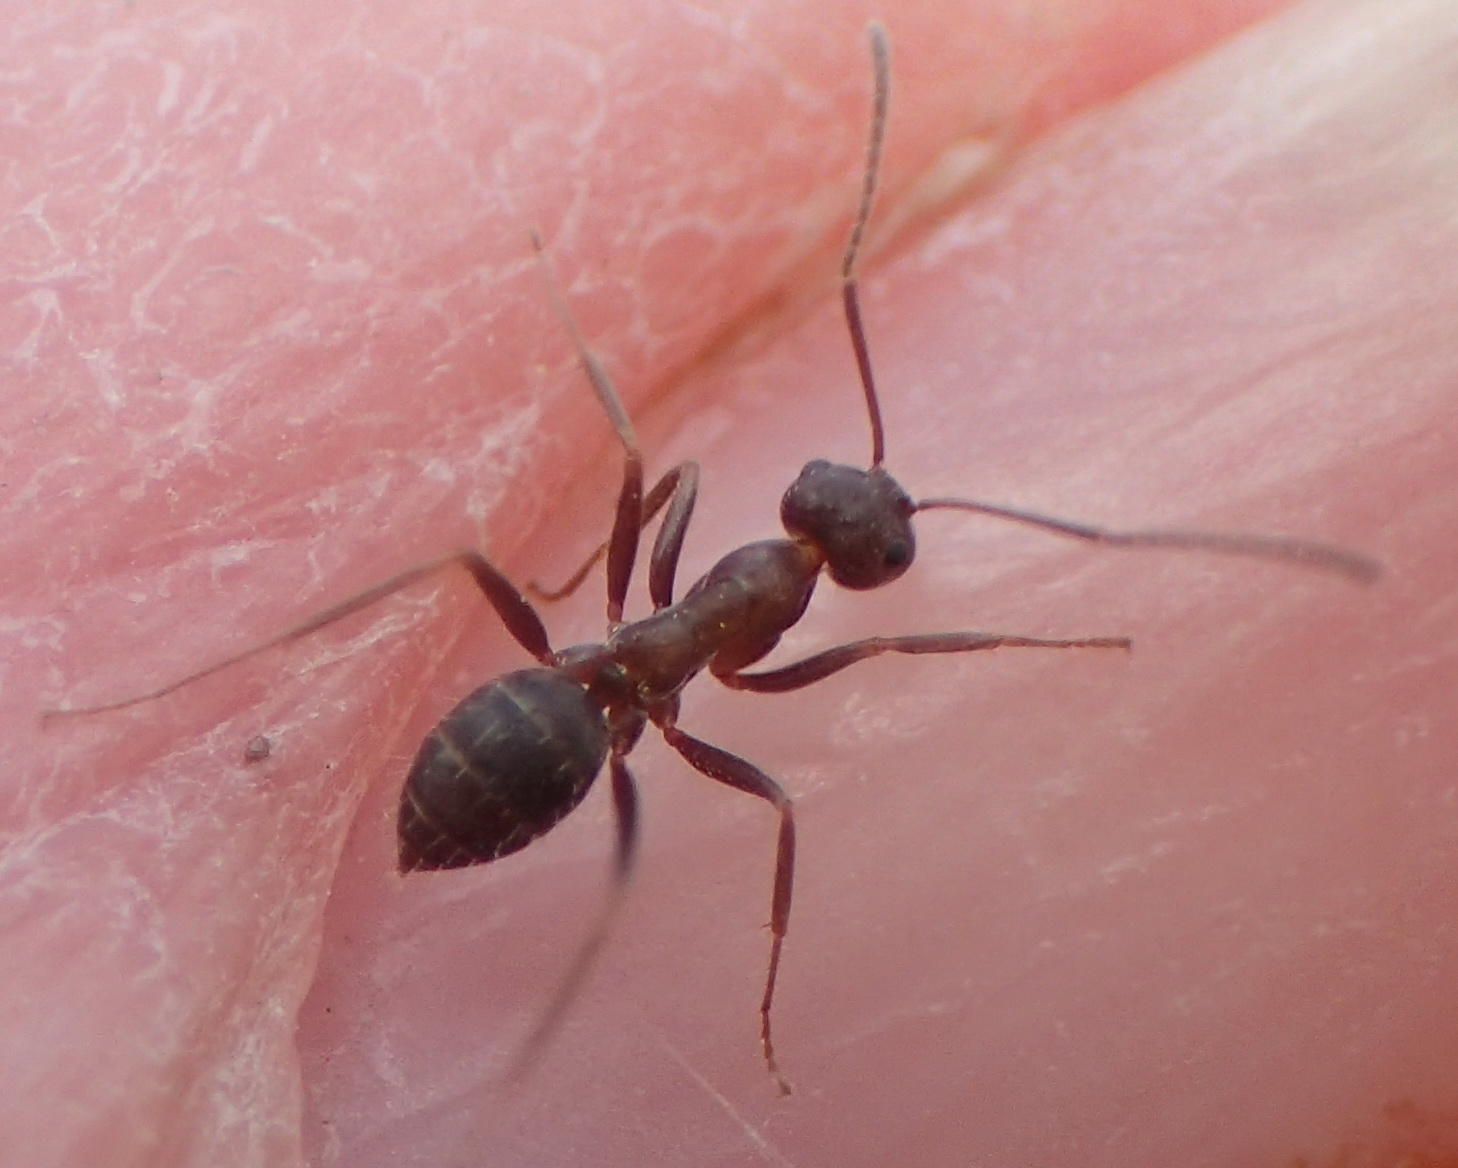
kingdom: Animalia
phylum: Arthropoda
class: Insecta
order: Hymenoptera
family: Formicidae
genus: Anoplolepis
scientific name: Anoplolepis steingroeveri
